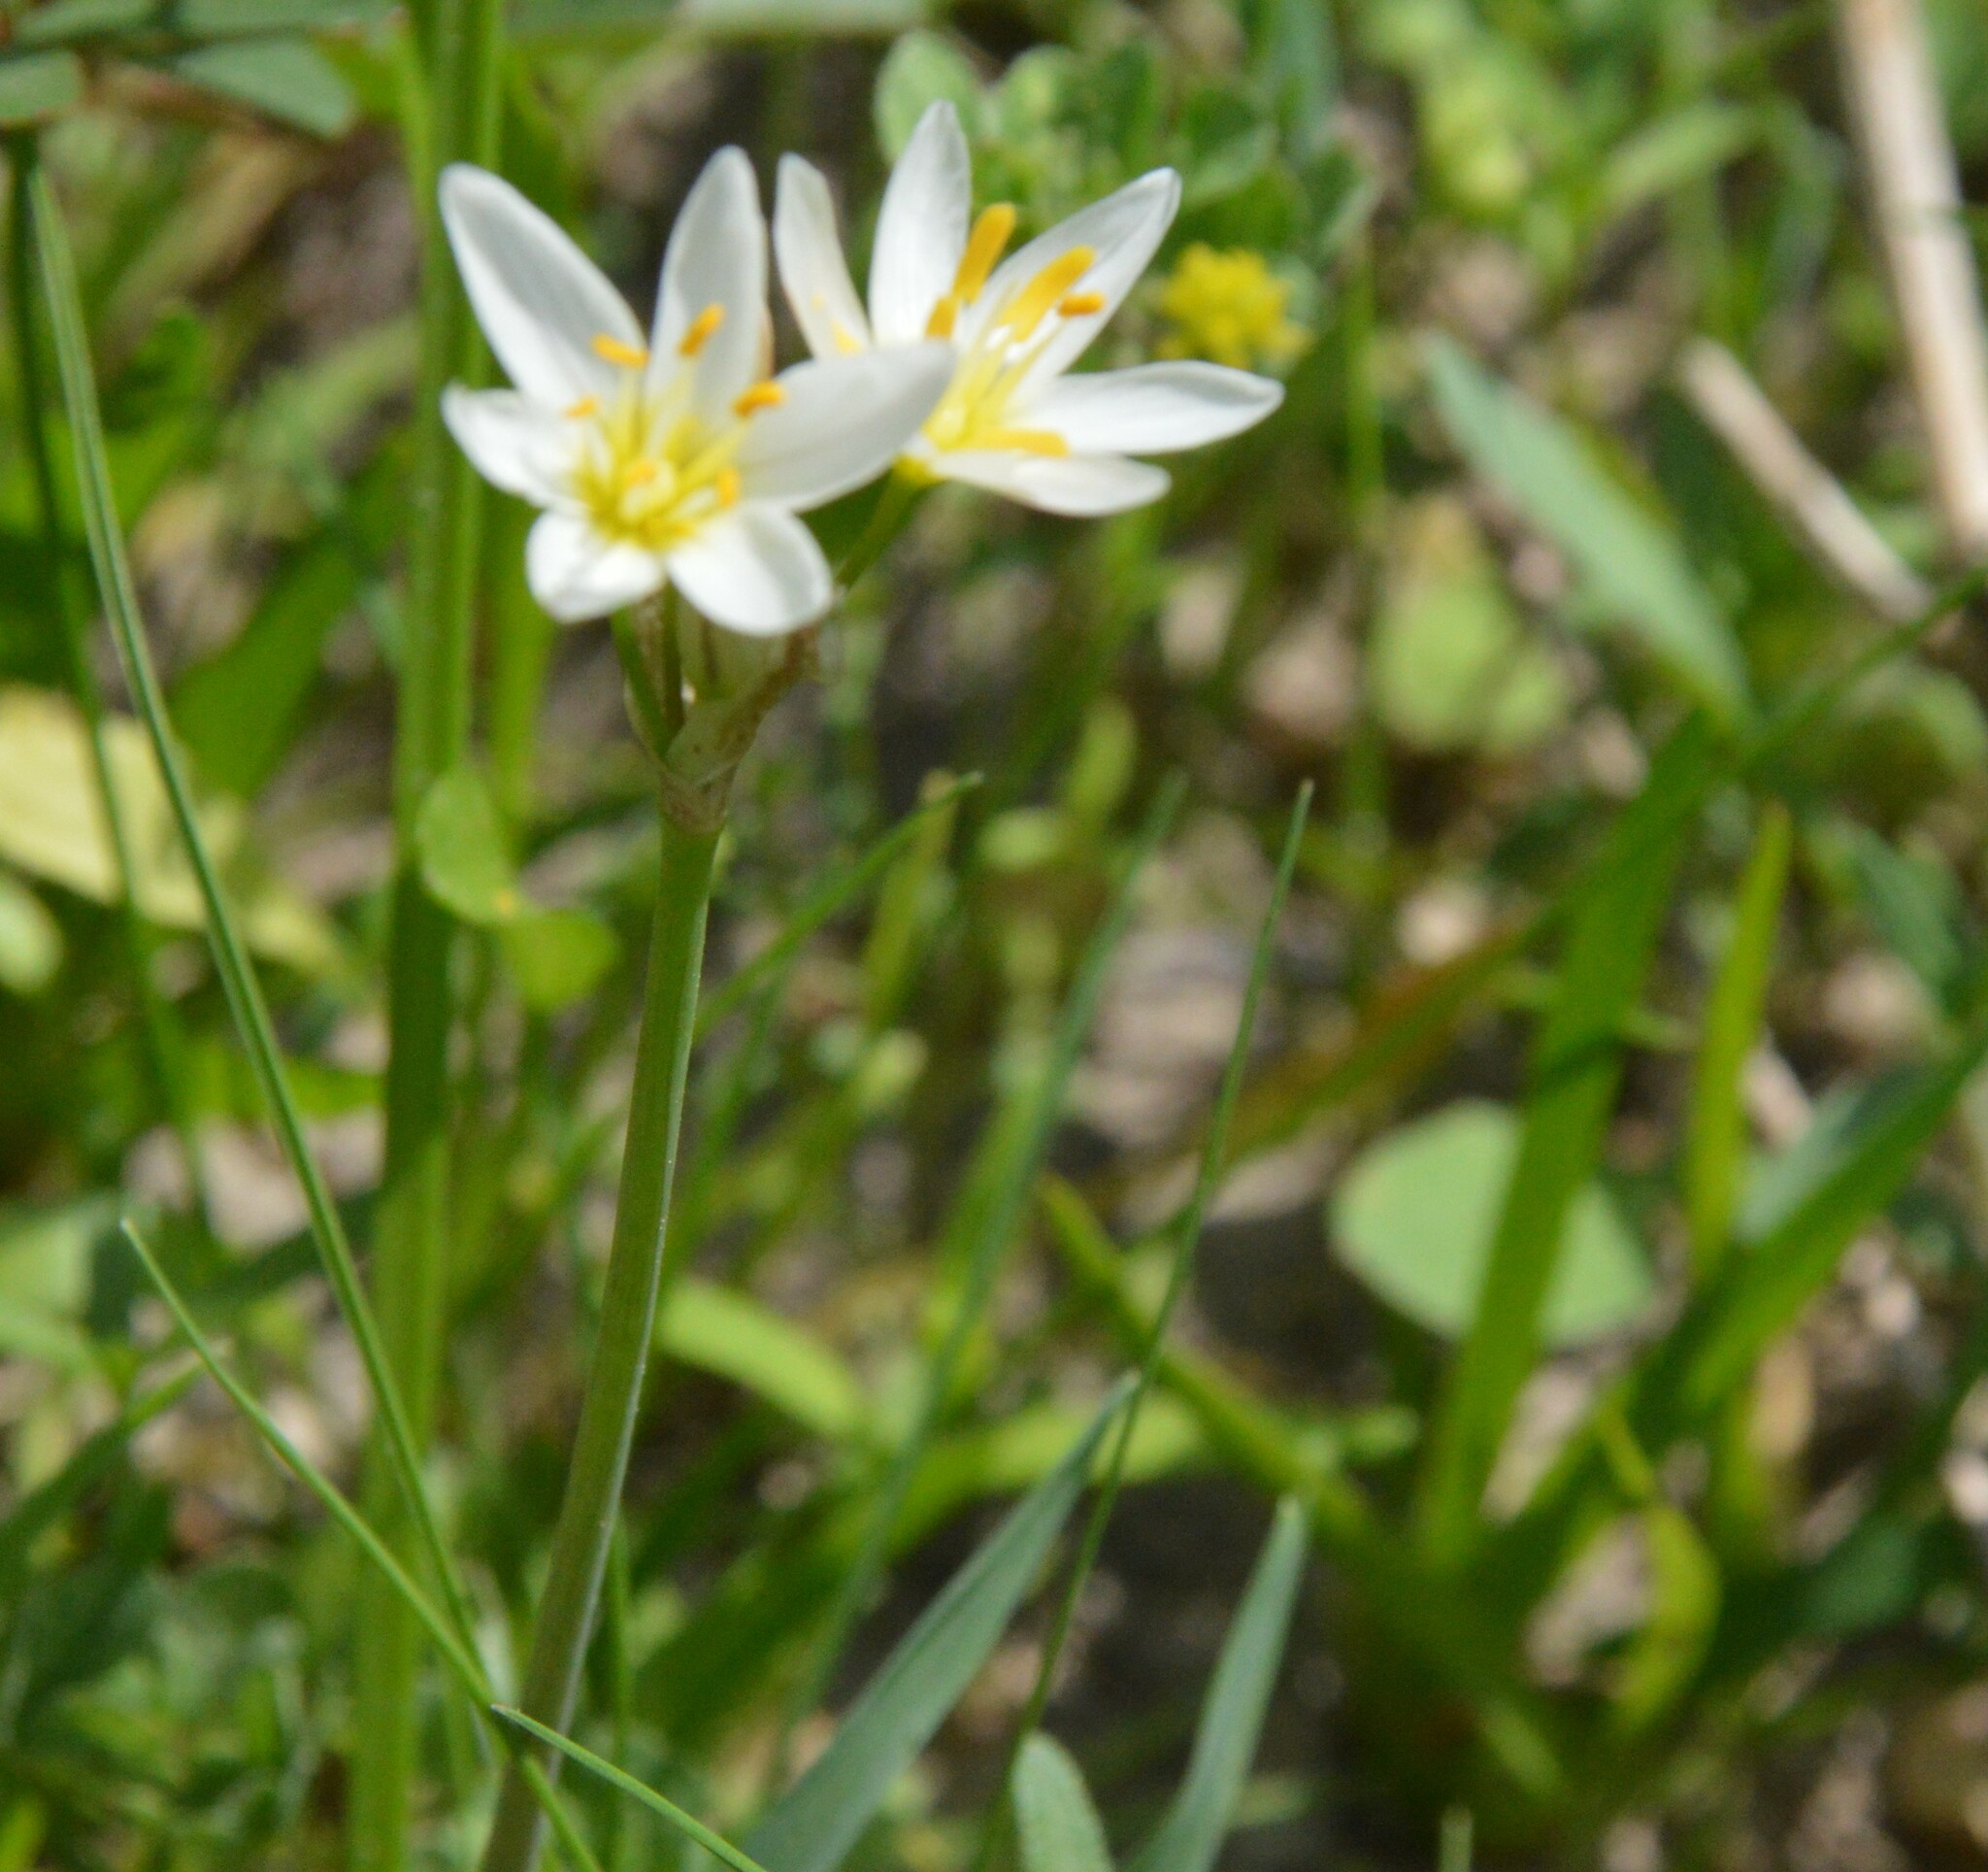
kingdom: Plantae
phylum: Tracheophyta
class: Liliopsida
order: Asparagales
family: Amaryllidaceae
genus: Nothoscordum
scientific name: Nothoscordum bivalve
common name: Crow-poison
